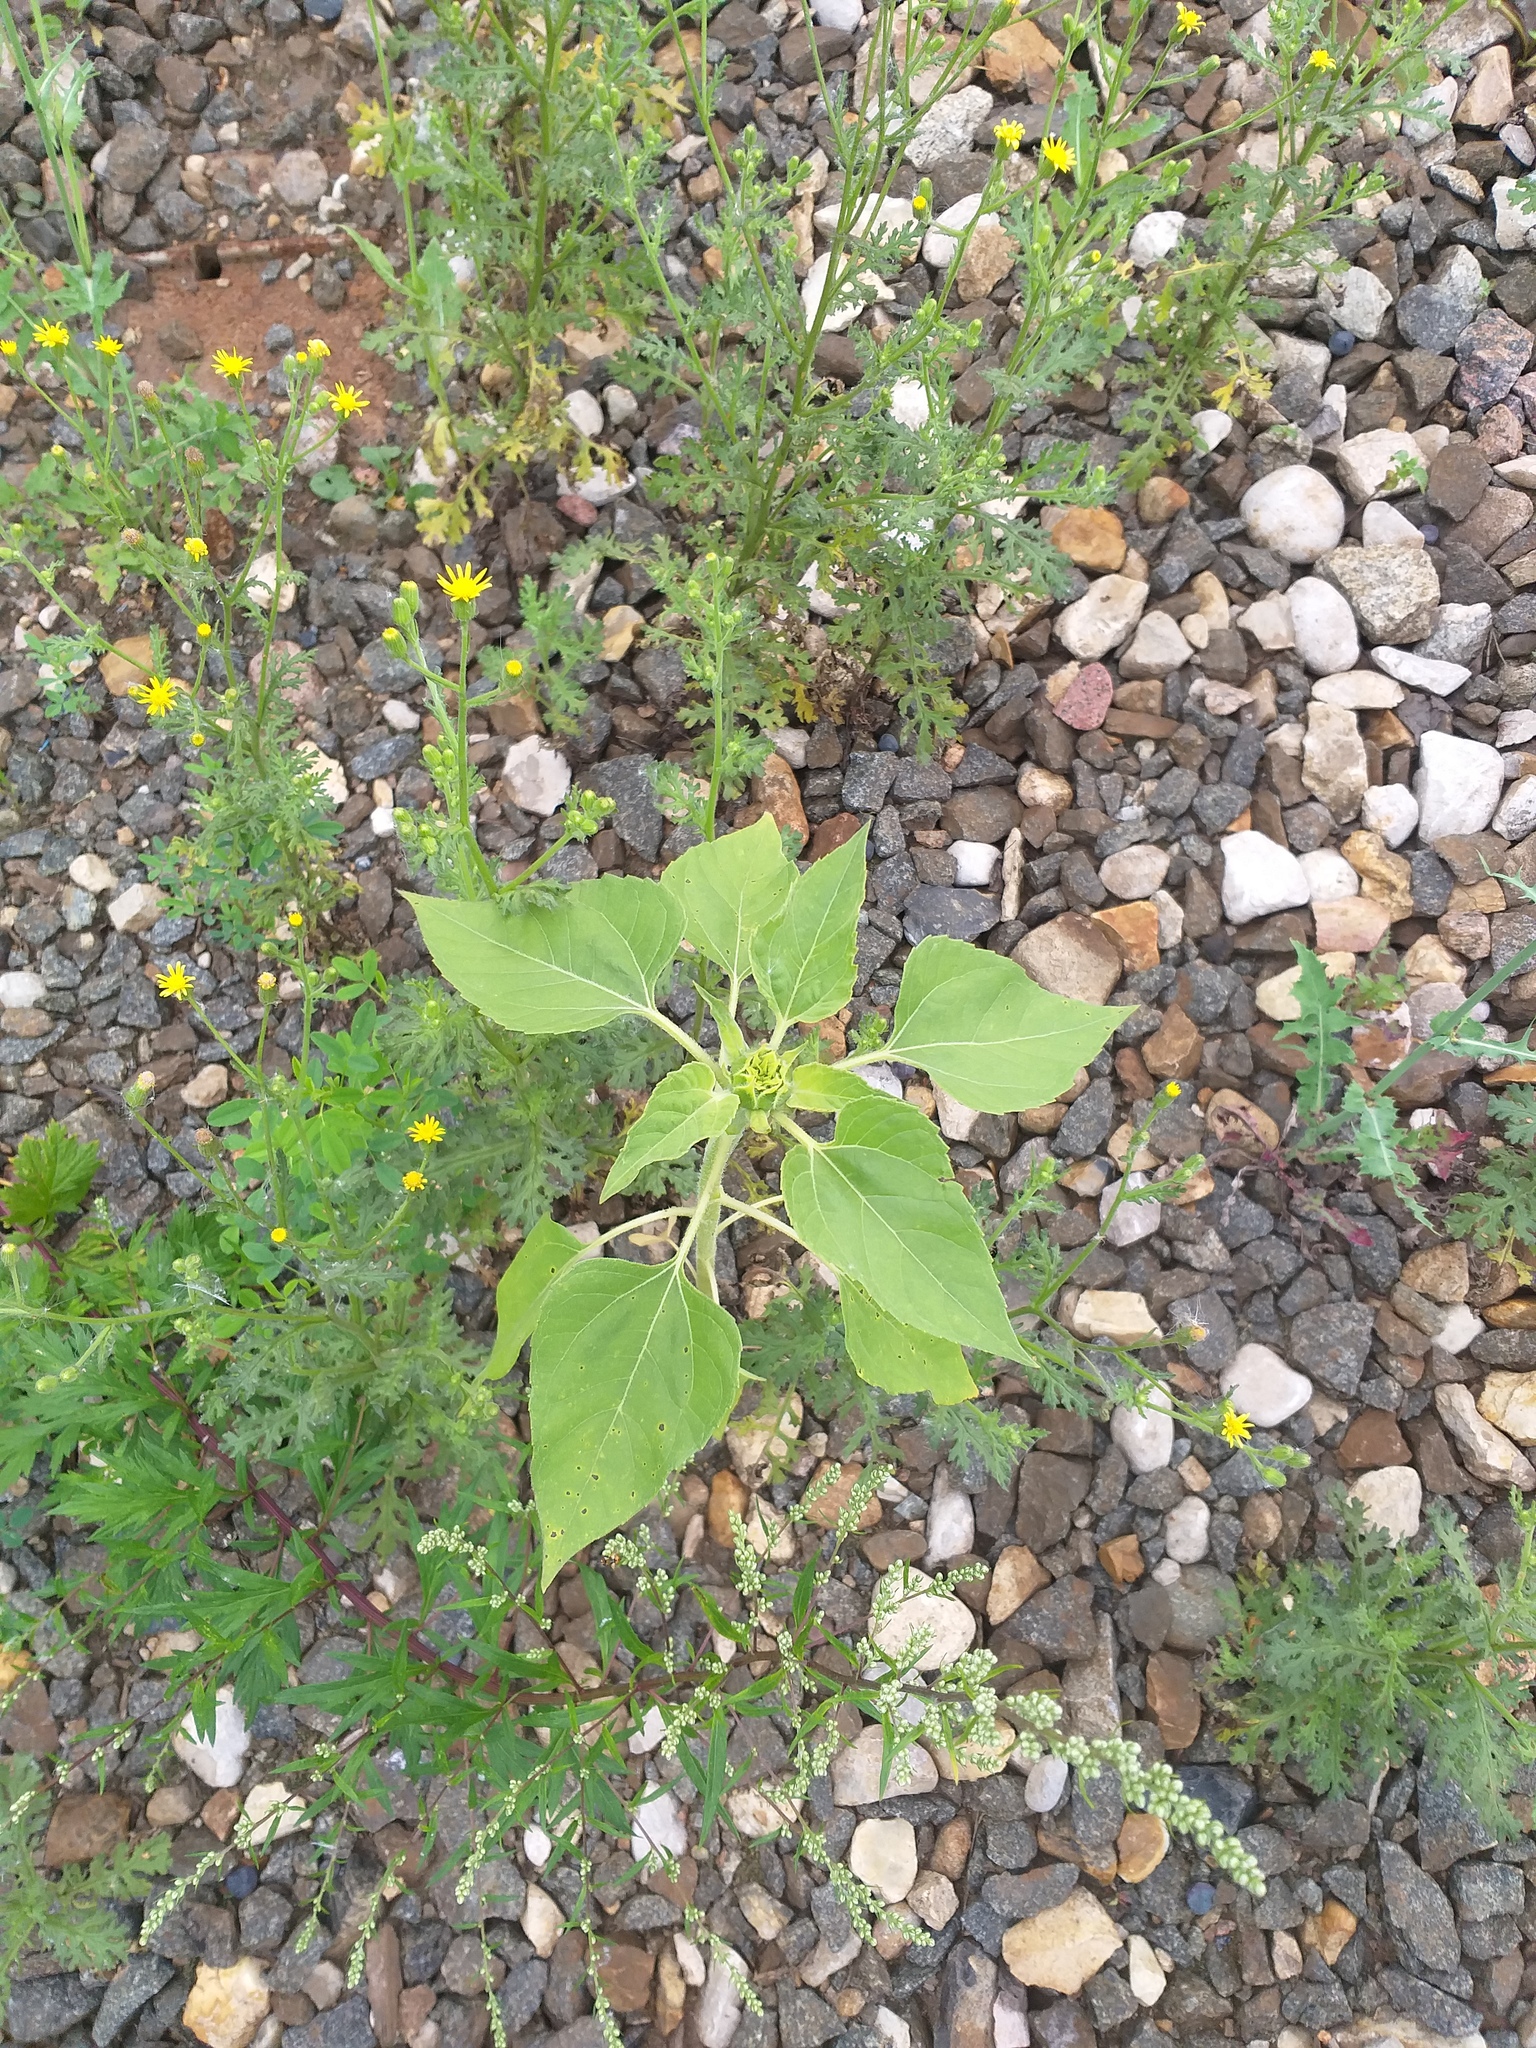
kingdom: Plantae
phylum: Tracheophyta
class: Magnoliopsida
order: Asterales
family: Asteraceae
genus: Helianthus
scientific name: Helianthus annuus
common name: Sunflower
